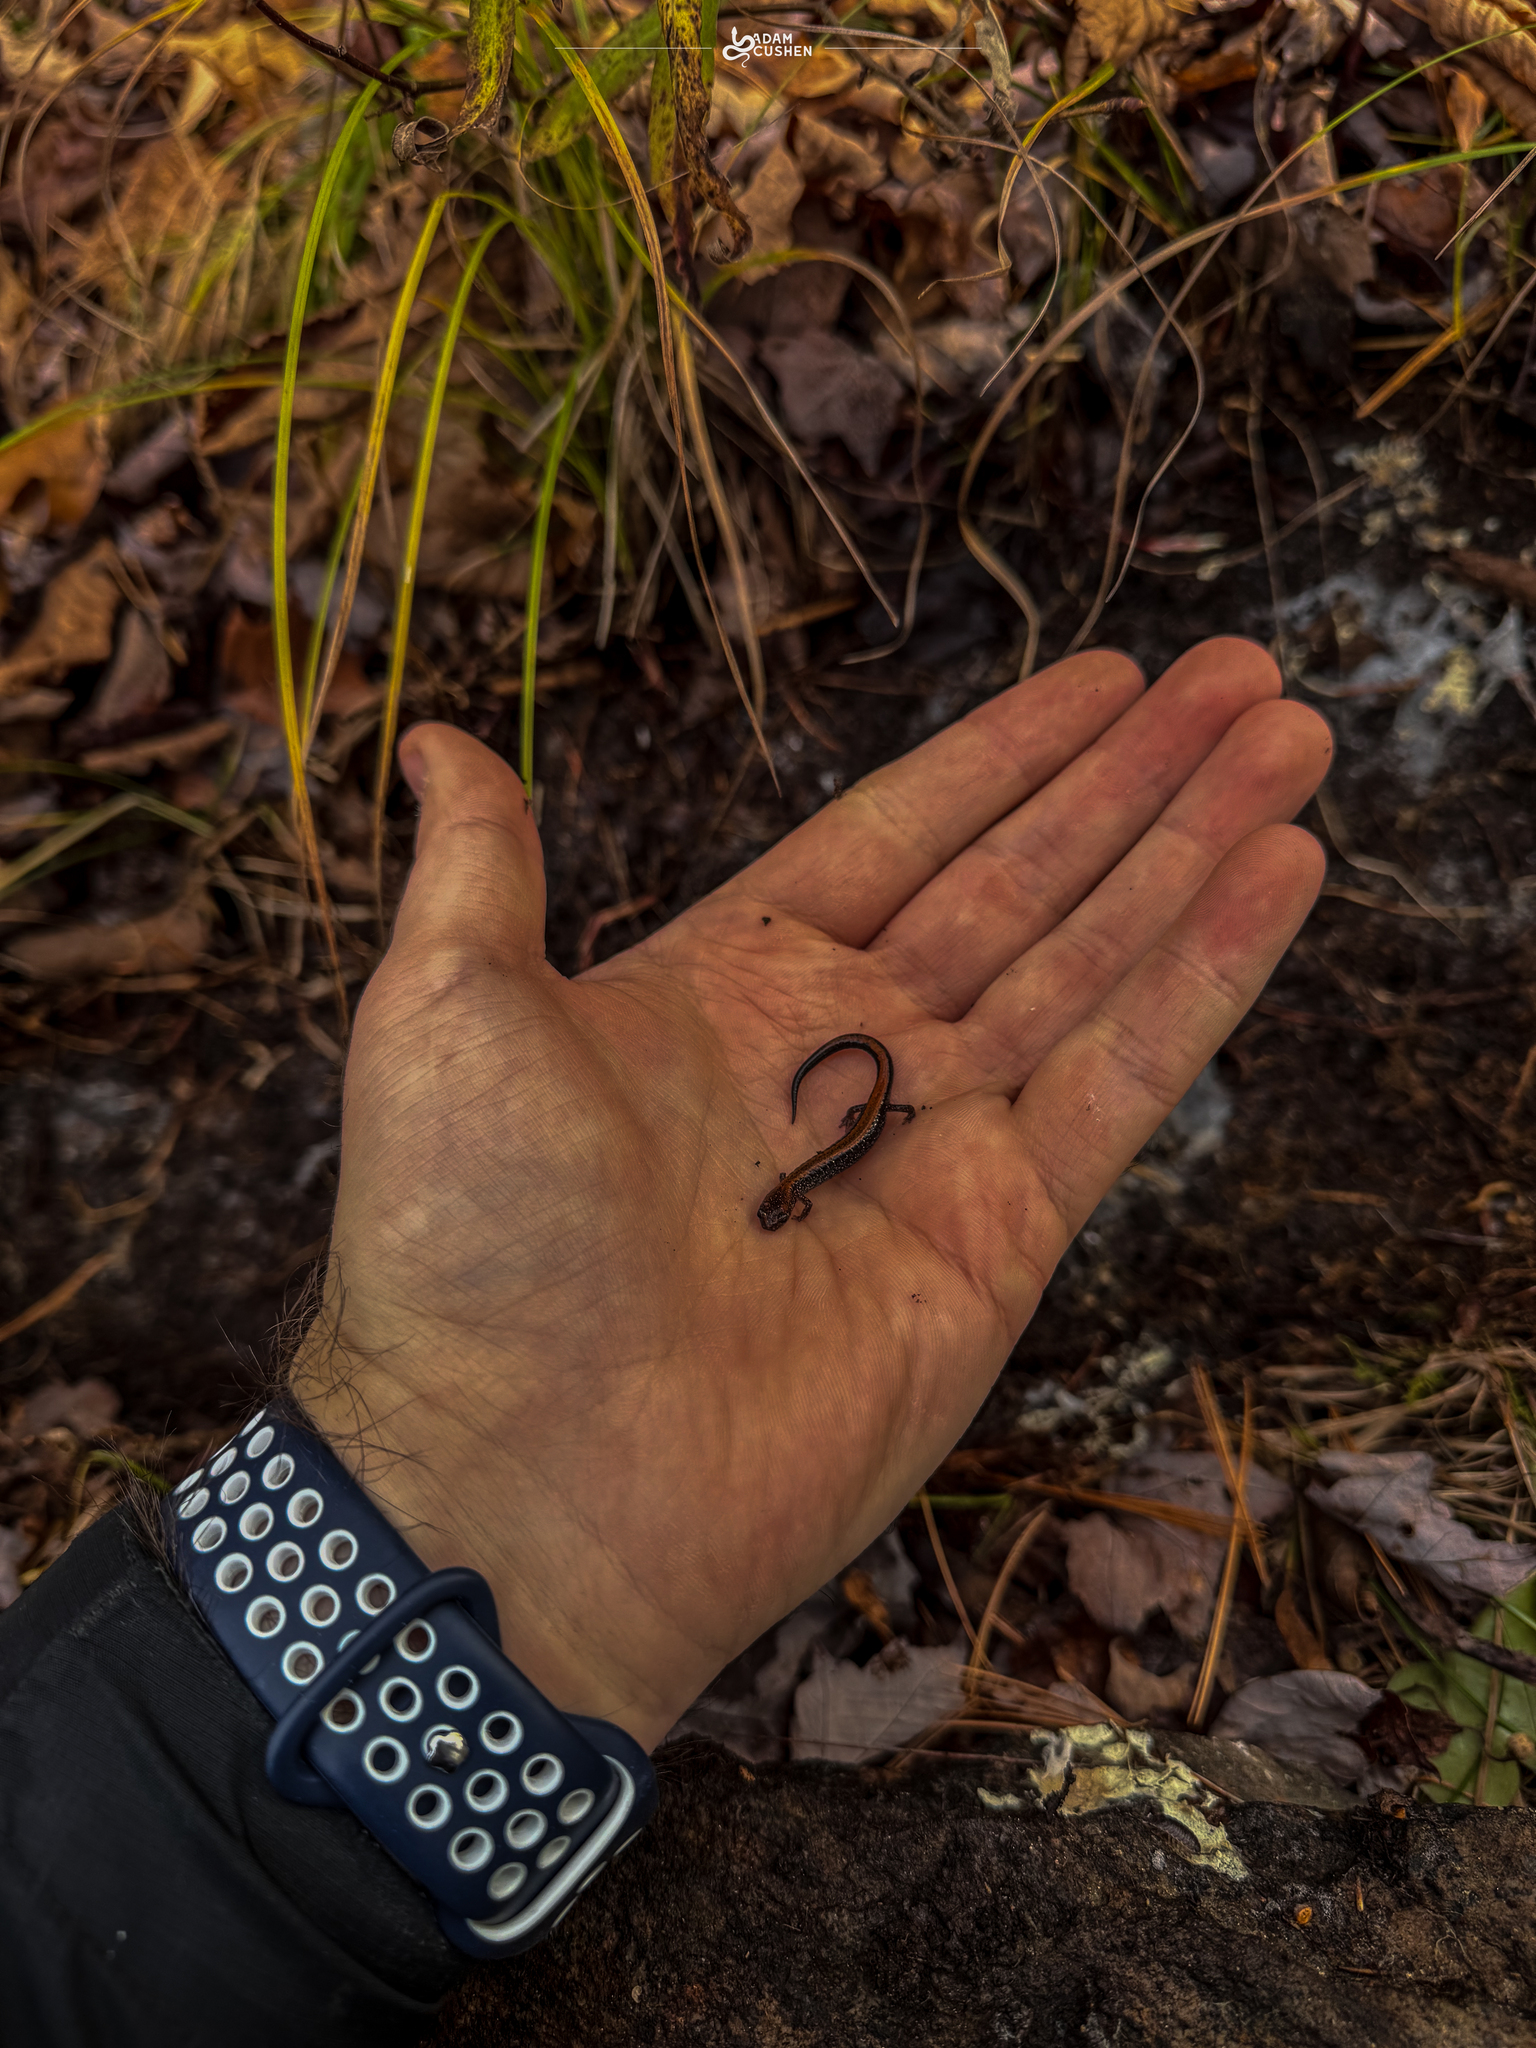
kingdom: Animalia
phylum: Chordata
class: Amphibia
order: Caudata
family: Plethodontidae
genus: Plethodon
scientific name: Plethodon cinereus
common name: Redback salamander
